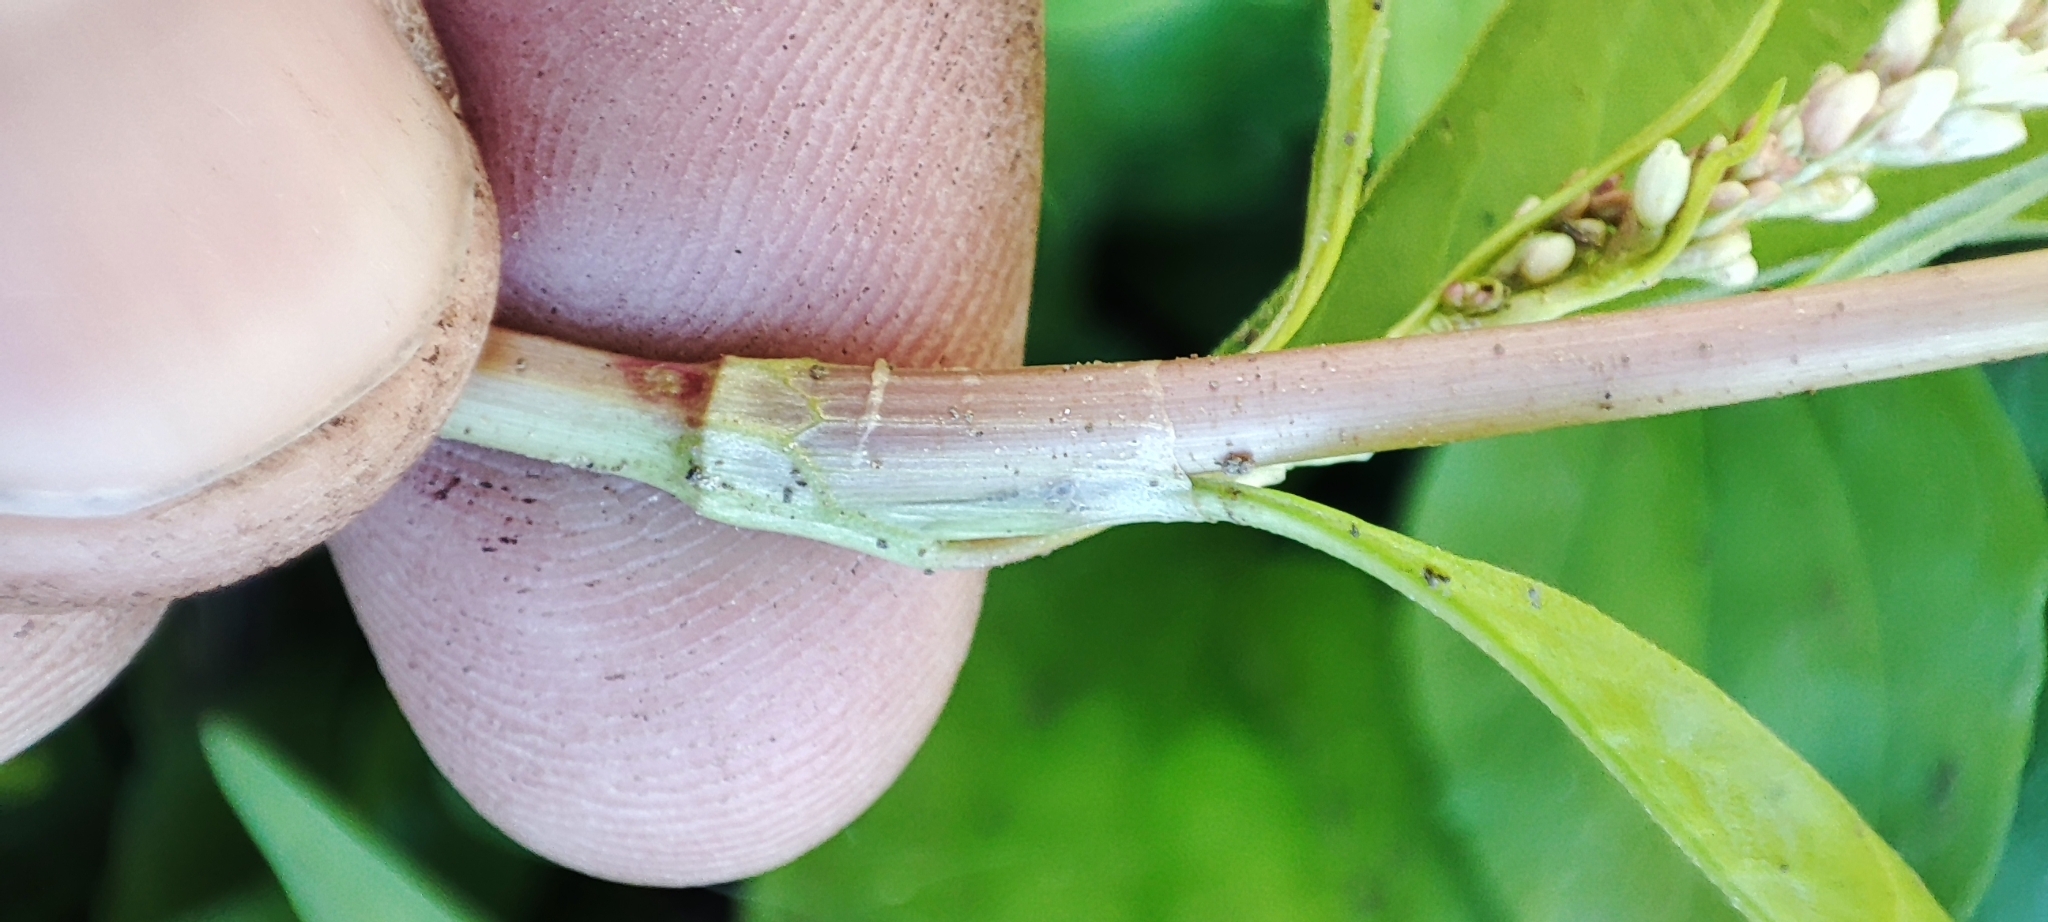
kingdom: Plantae
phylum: Tracheophyta
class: Magnoliopsida
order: Caryophyllales
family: Polygonaceae
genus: Persicaria
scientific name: Persicaria lapathifolia
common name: Curlytop knotweed
